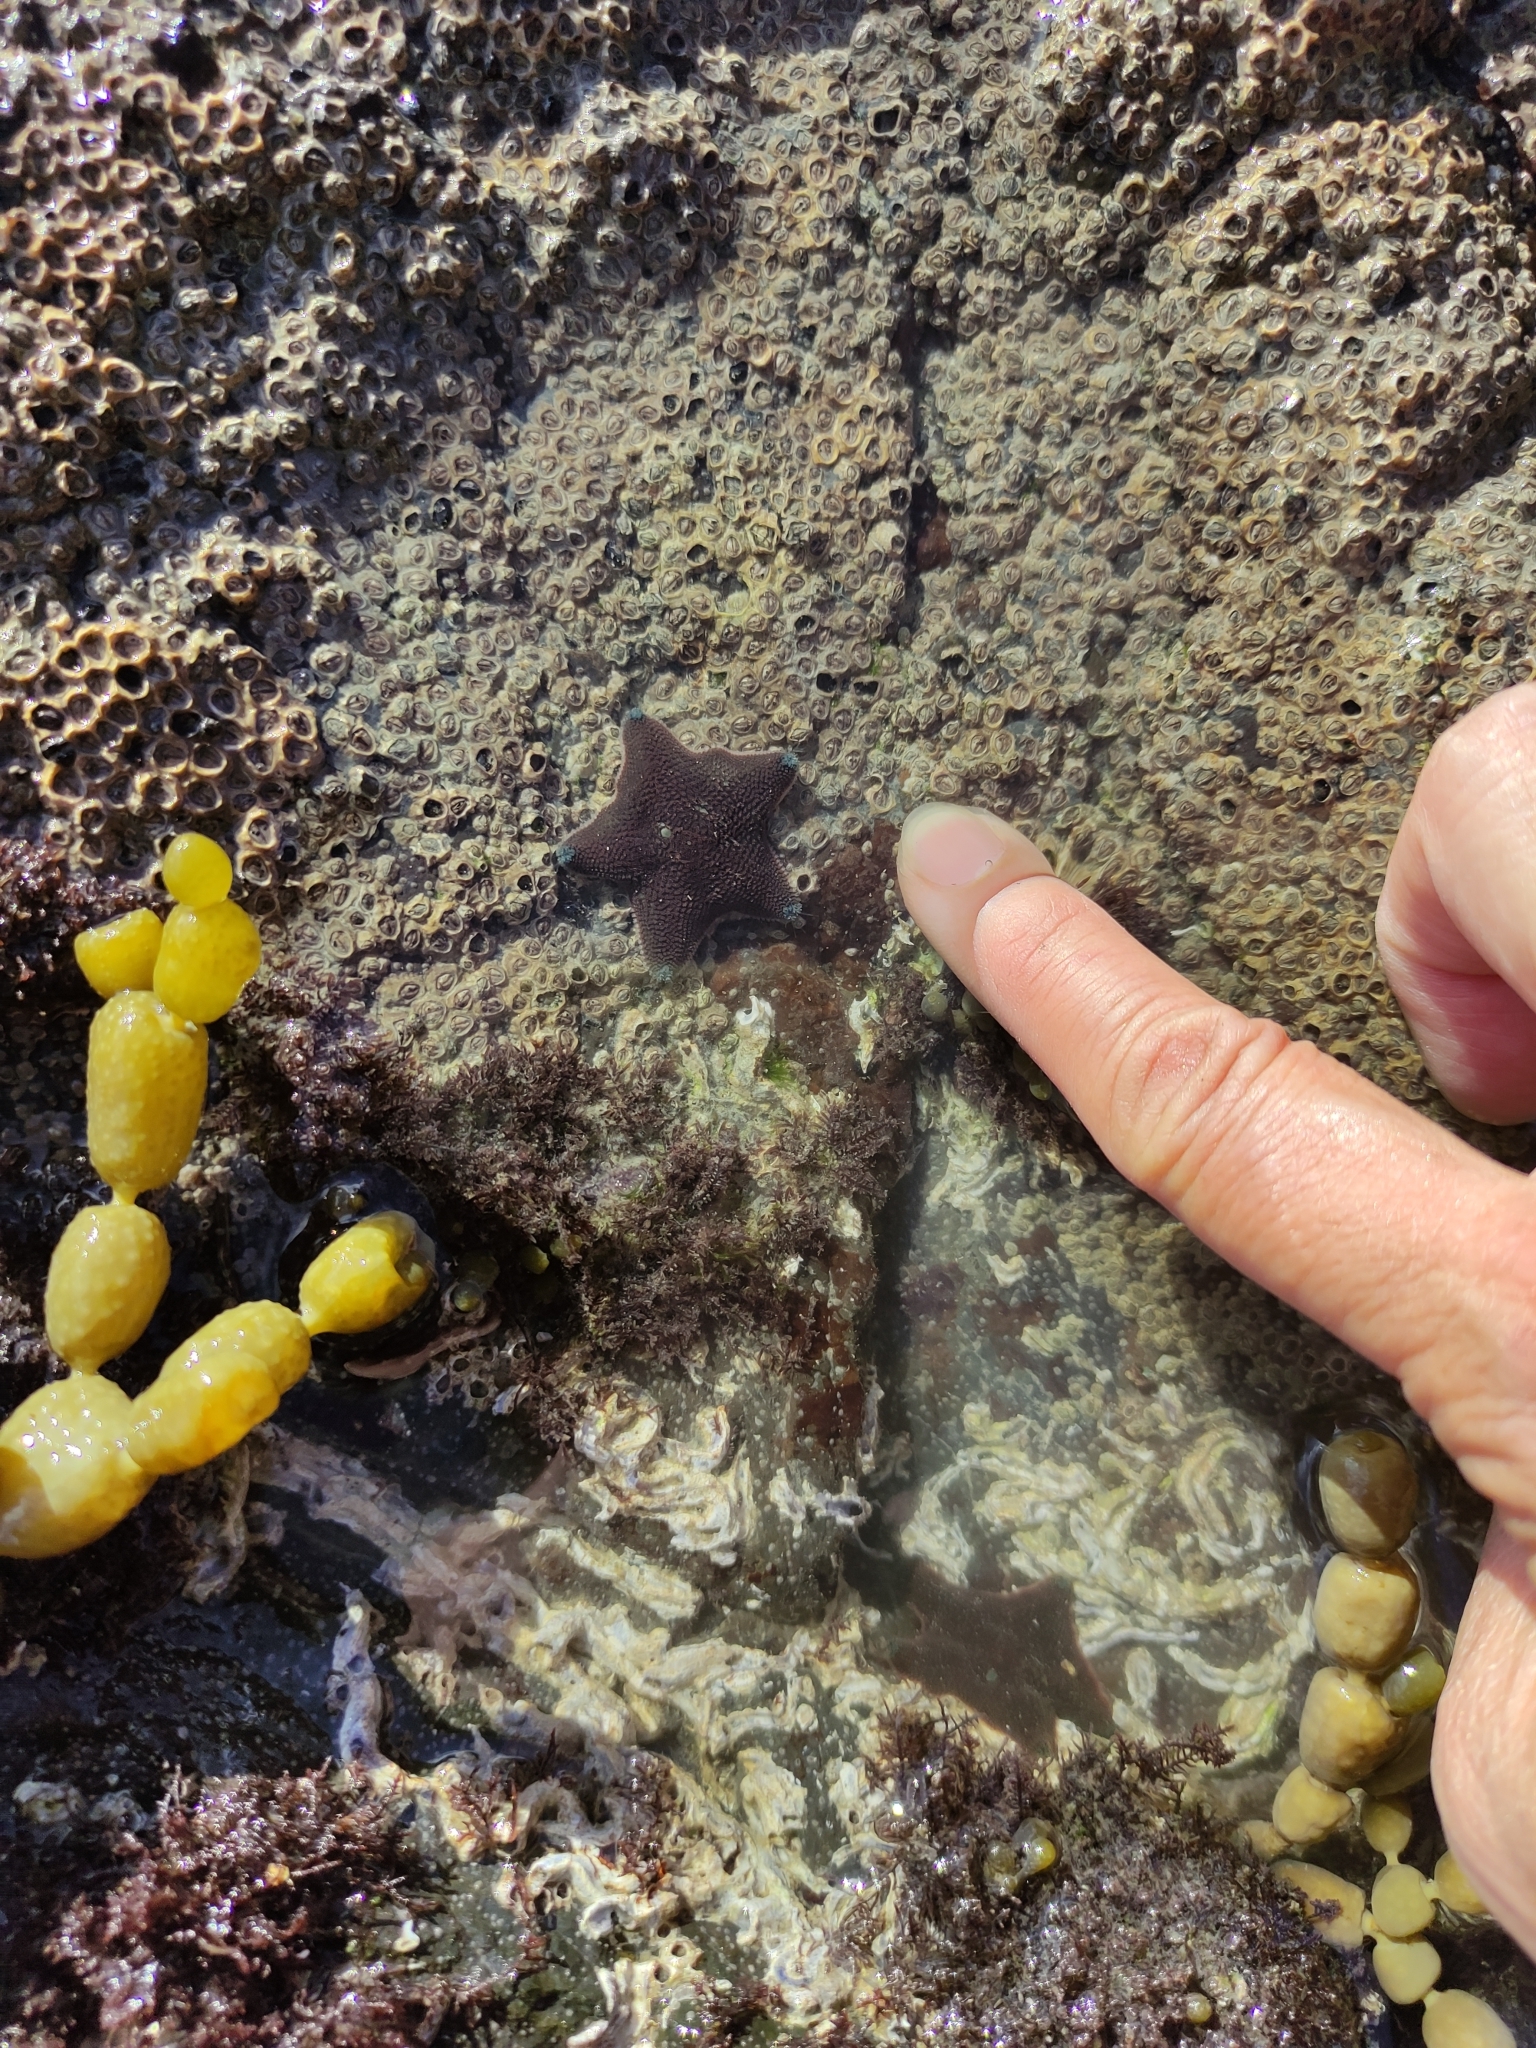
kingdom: Animalia
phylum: Echinodermata
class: Asteroidea
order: Valvatida
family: Asterinidae
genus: Patiriella
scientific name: Patiriella regularis
